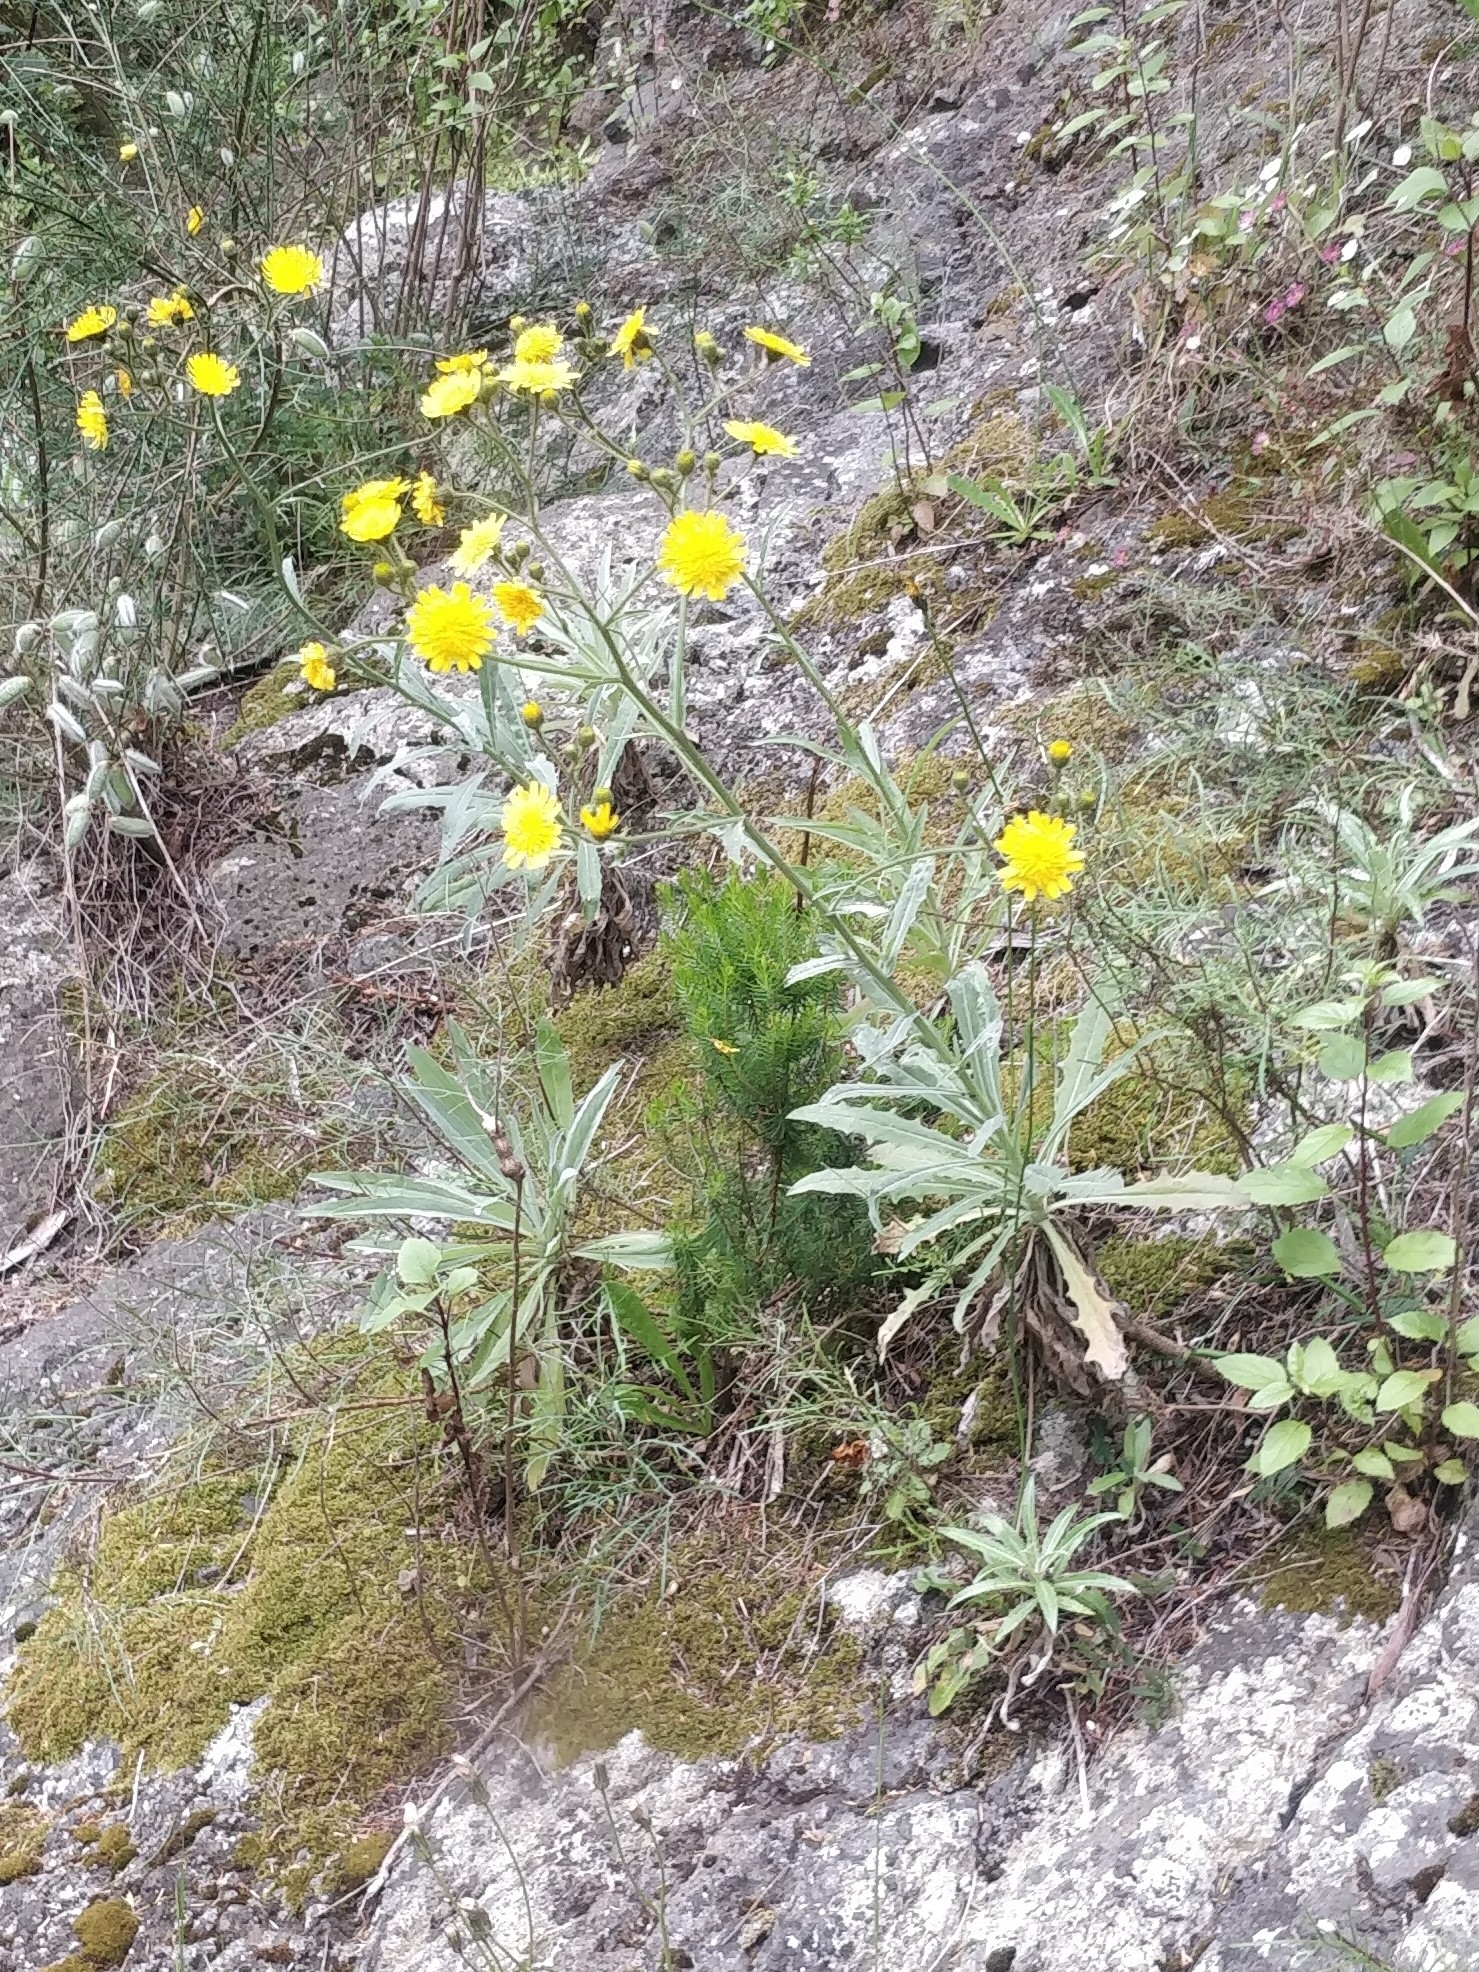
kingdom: Plantae
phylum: Tracheophyta
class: Magnoliopsida
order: Asterales
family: Asteraceae
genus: Andryala
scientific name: Andryala glandulosa
